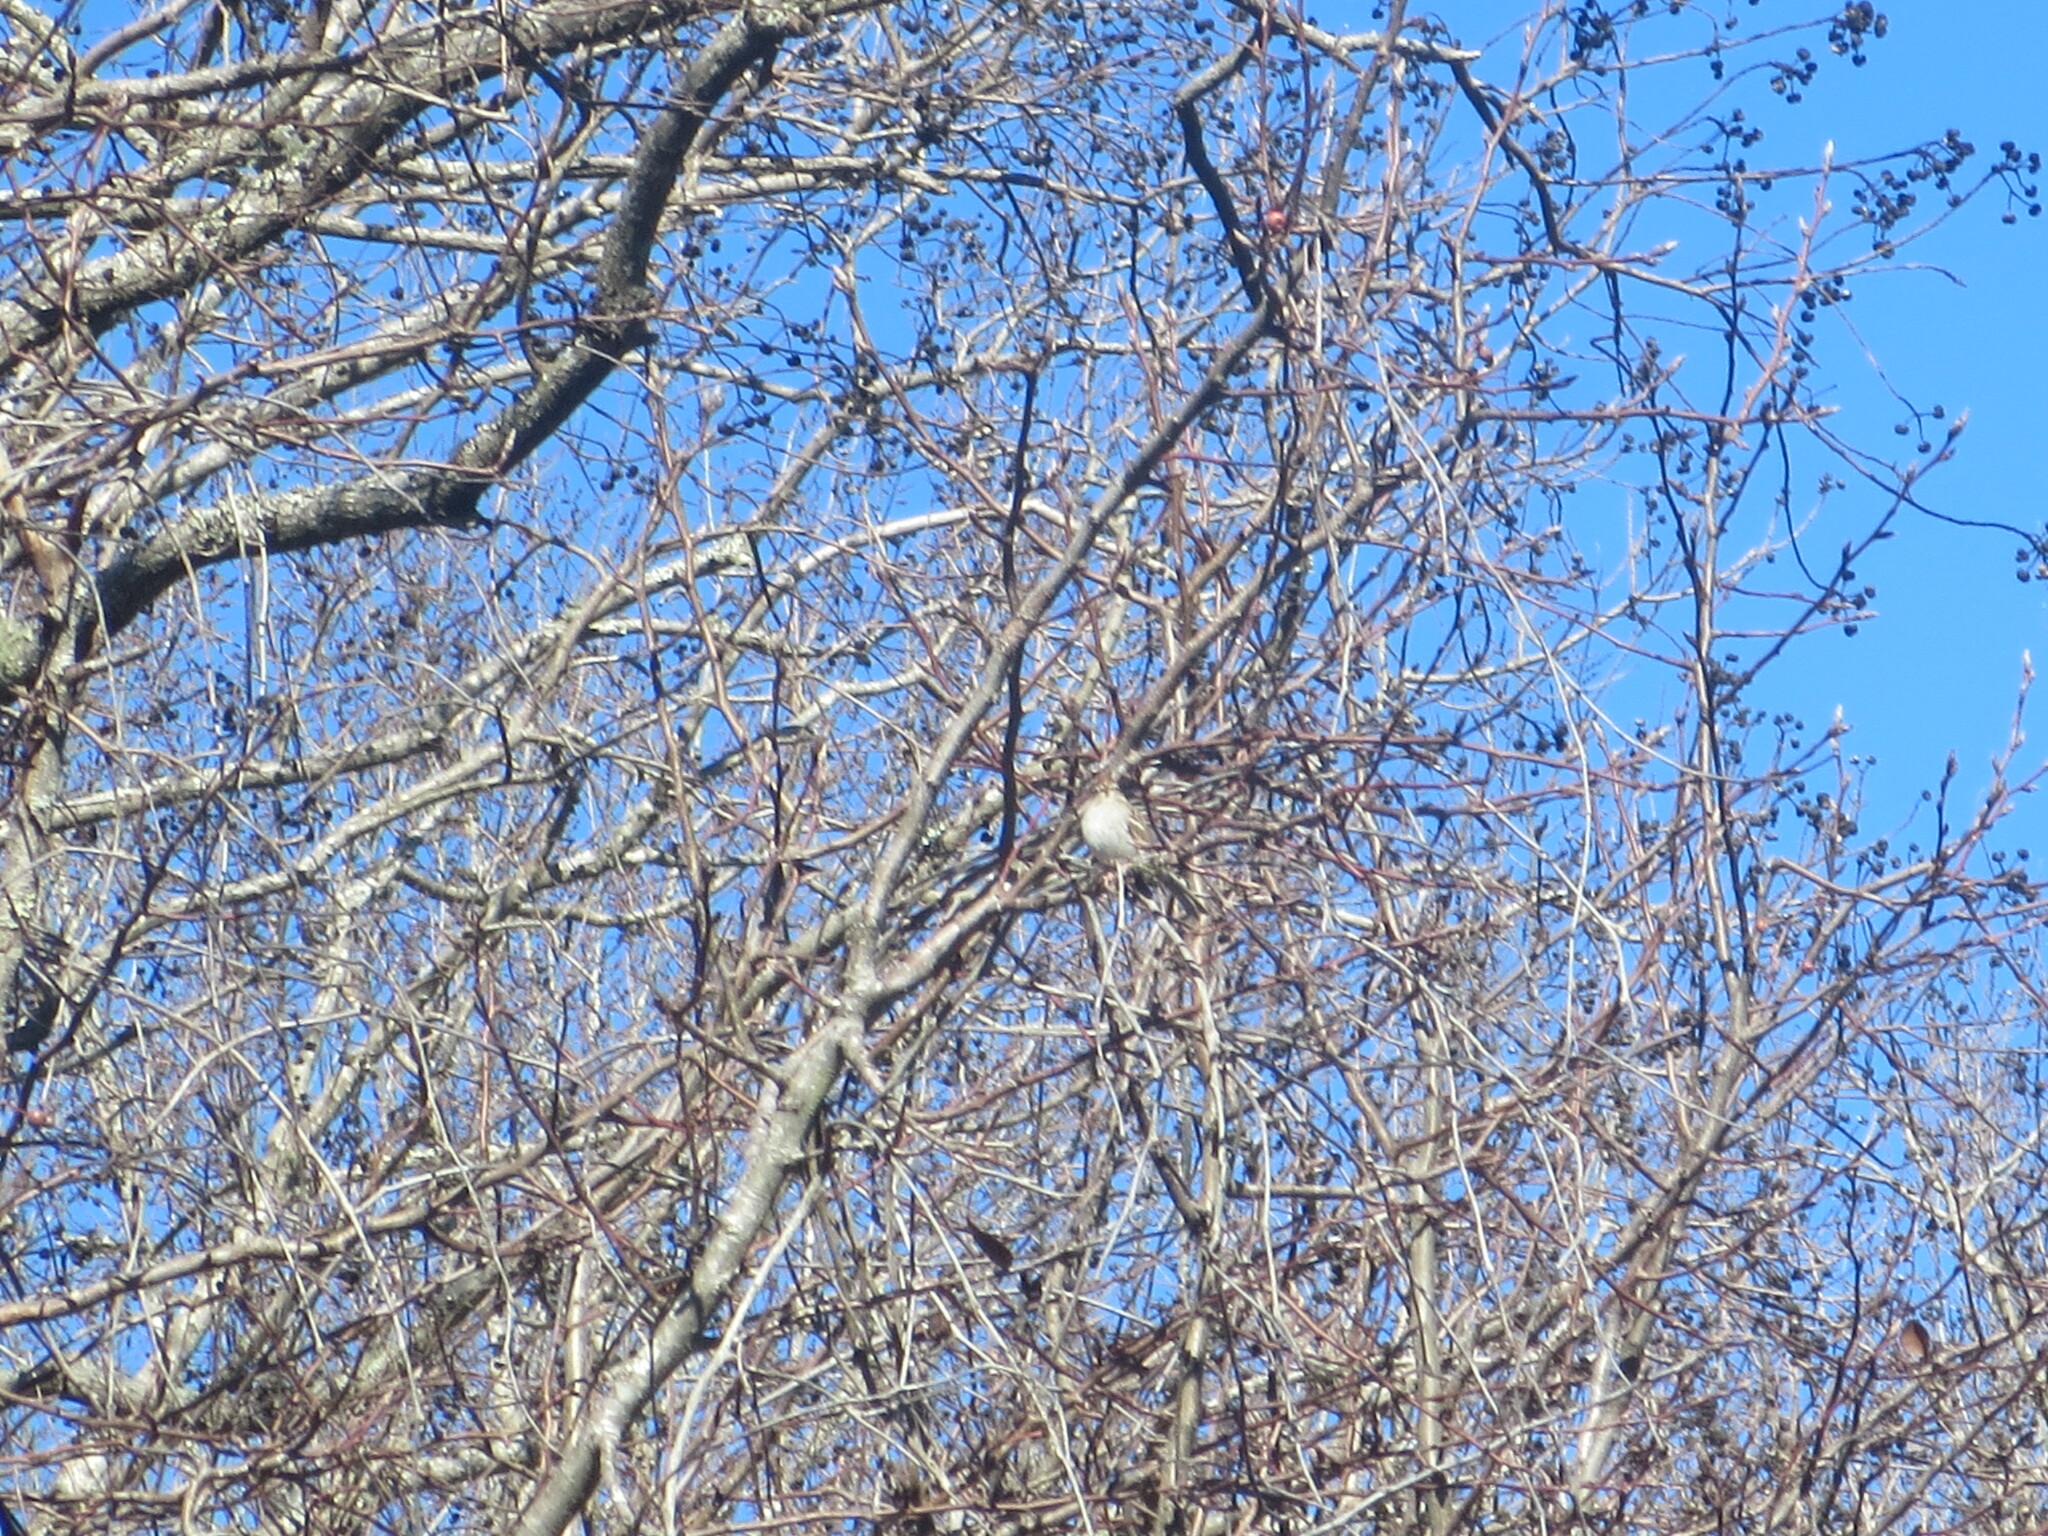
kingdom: Animalia
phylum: Chordata
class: Aves
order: Passeriformes
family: Passerellidae
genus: Spizella
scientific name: Spizella passerina
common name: Chipping sparrow
